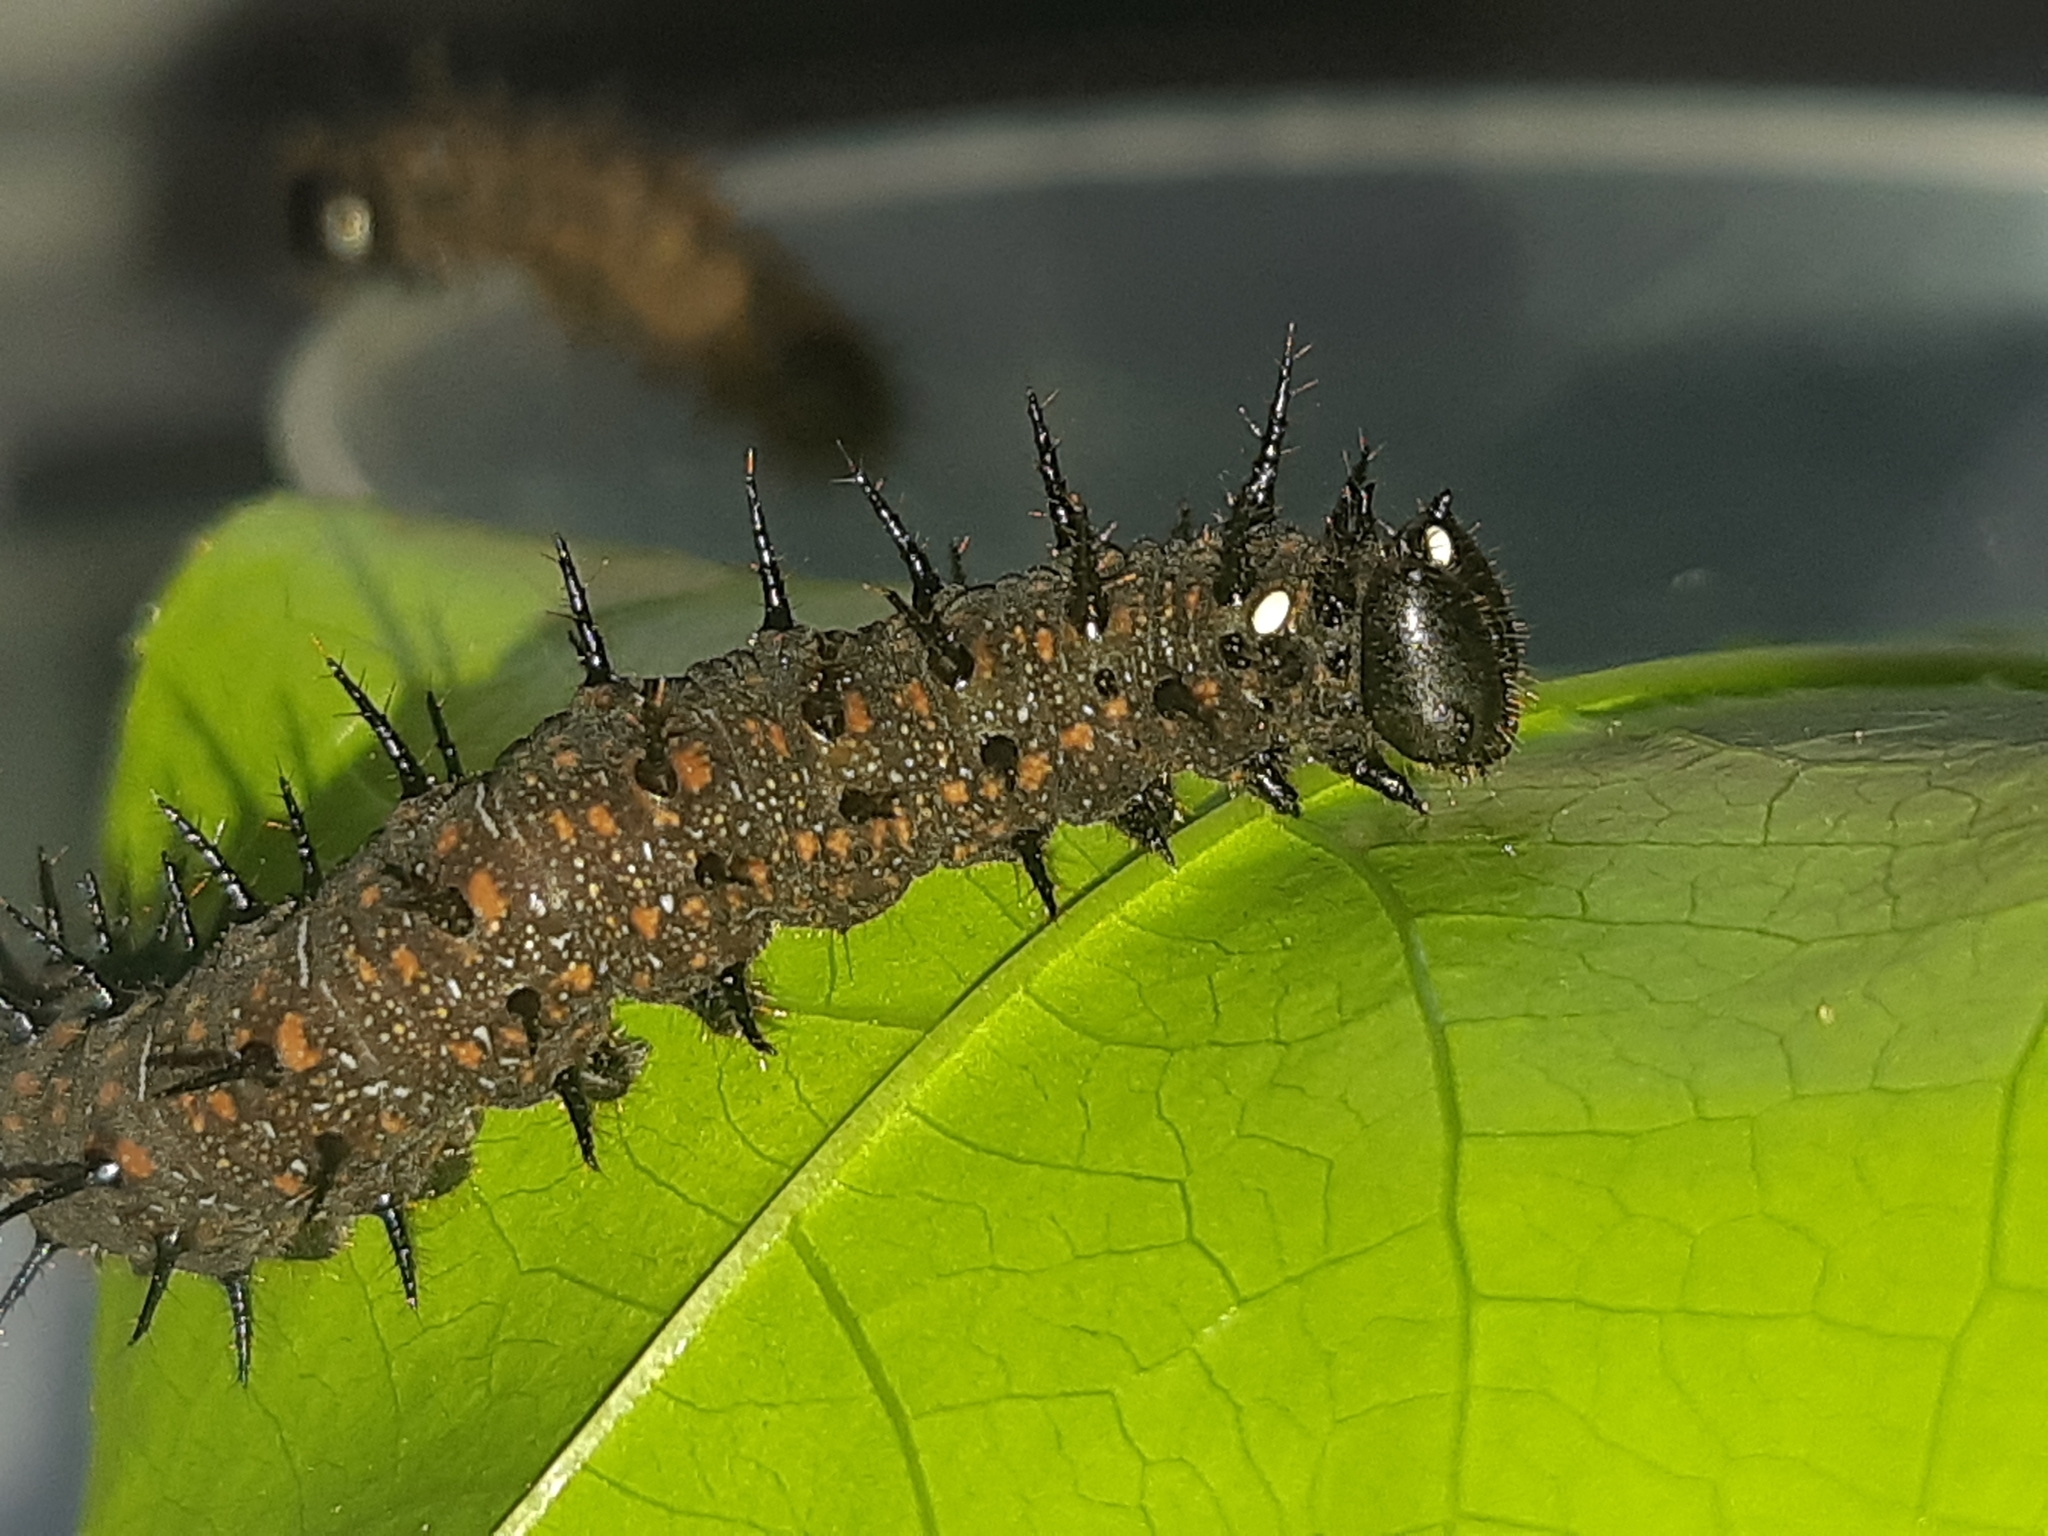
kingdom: Animalia
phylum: Arthropoda
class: Insecta
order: Lepidoptera
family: Nymphalidae
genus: Dione
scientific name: Dione juno
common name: Juno silverspot
